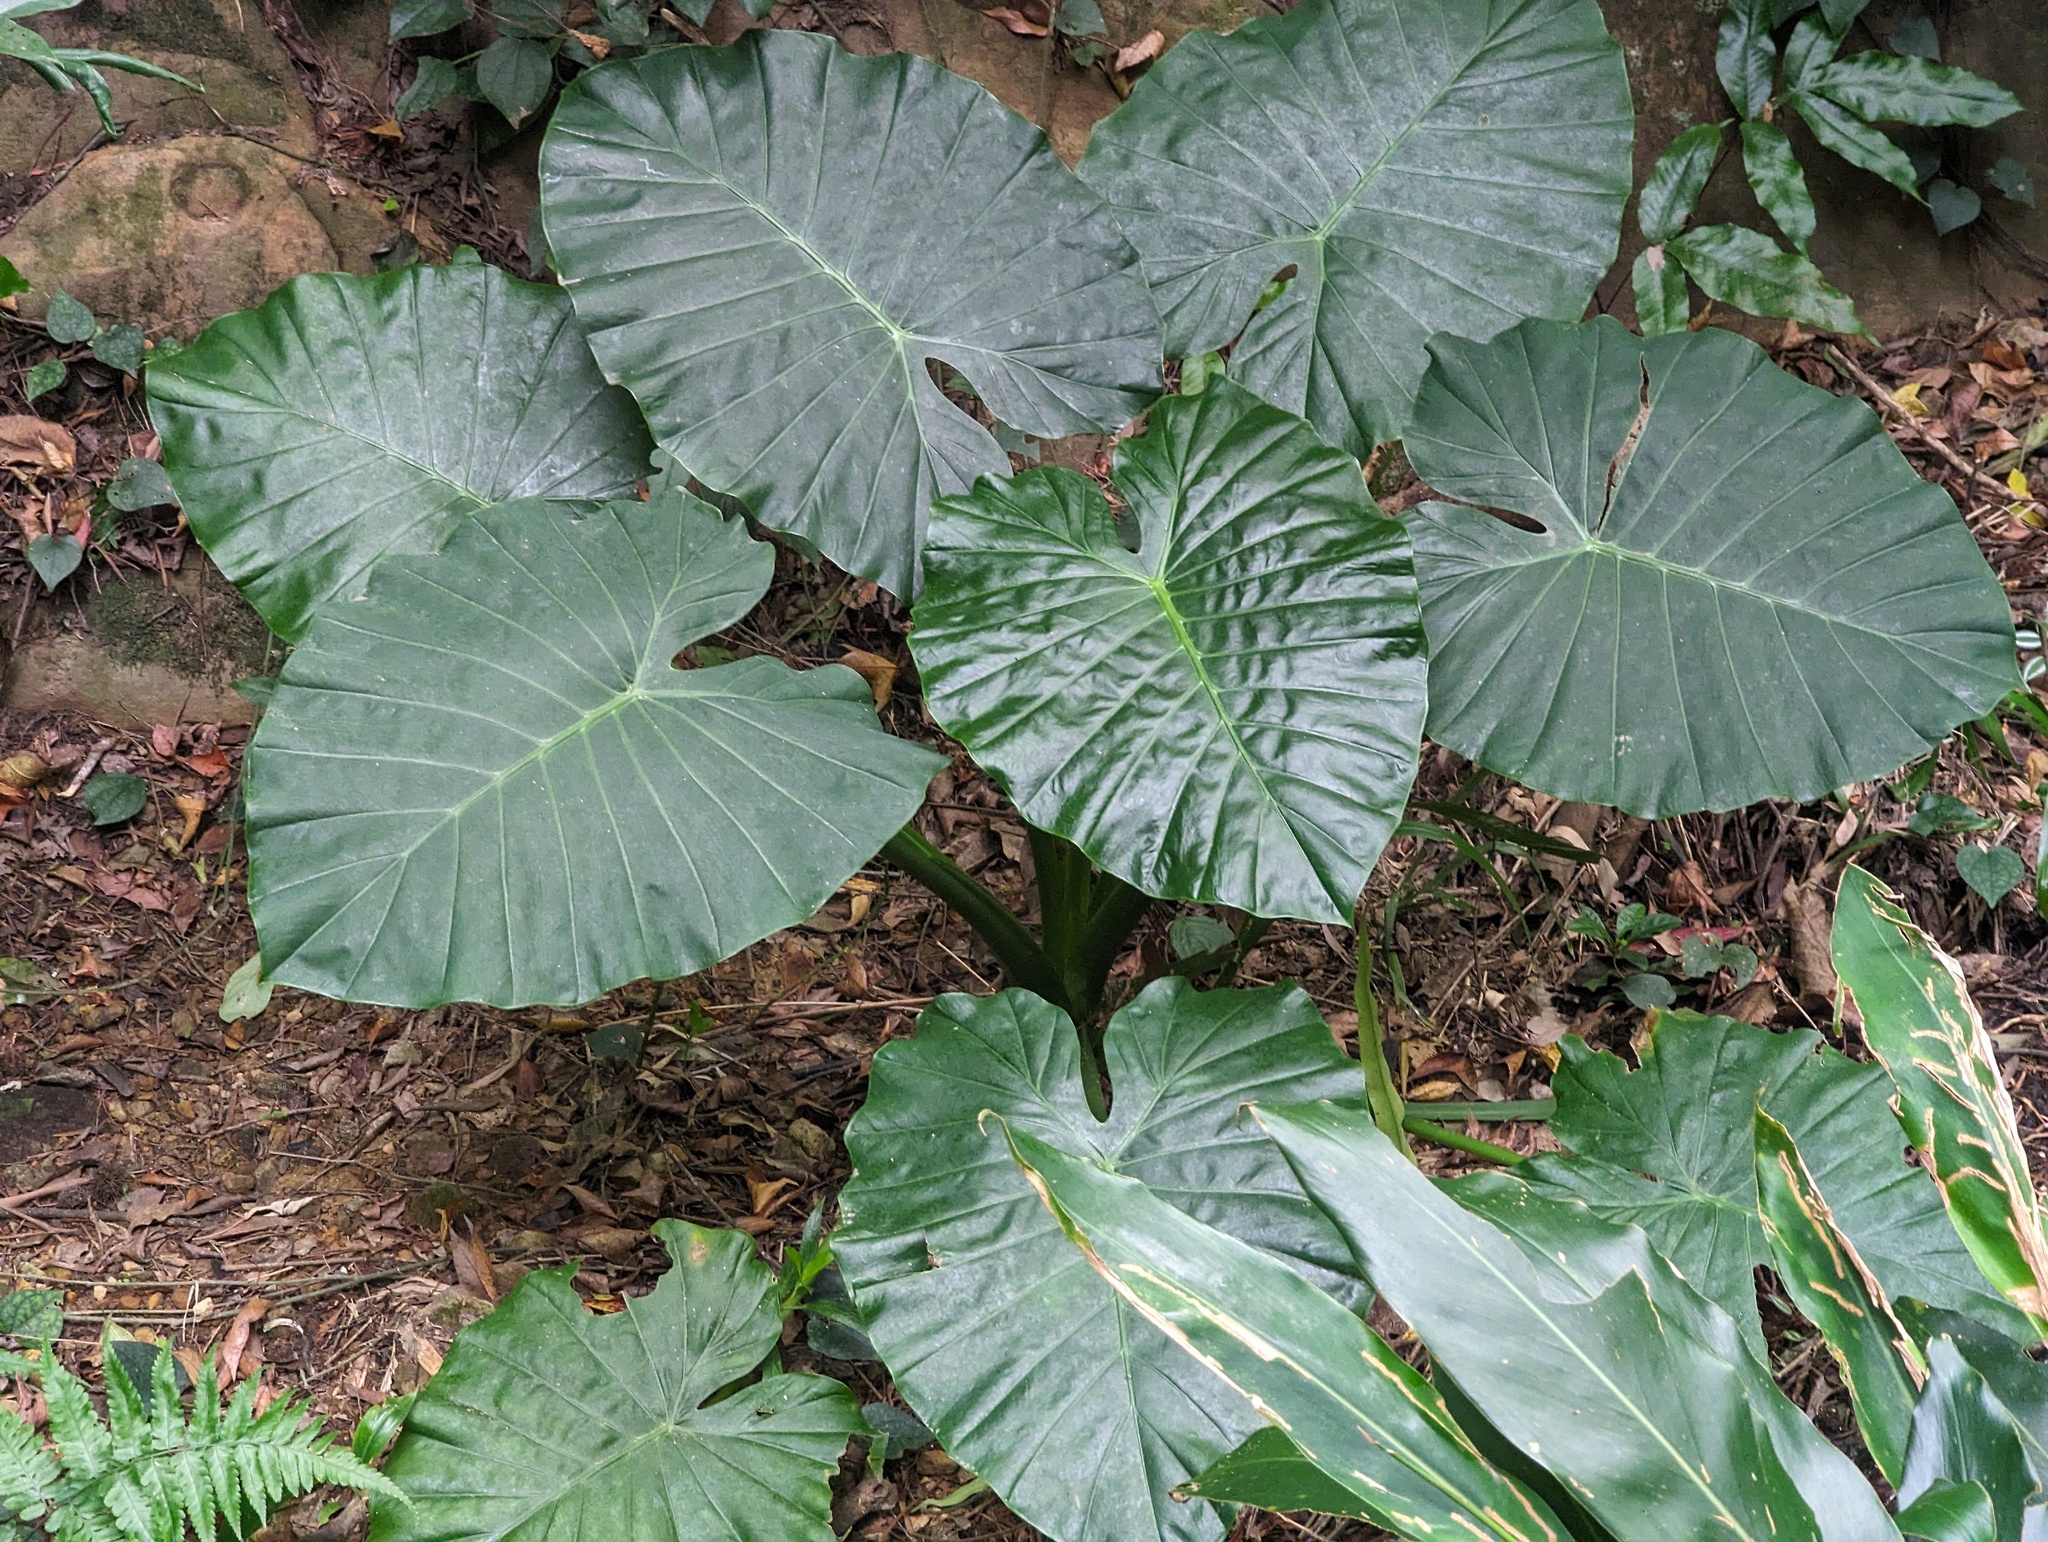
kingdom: Plantae
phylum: Tracheophyta
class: Liliopsida
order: Alismatales
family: Araceae
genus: Alocasia
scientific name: Alocasia odora
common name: Asian taro
